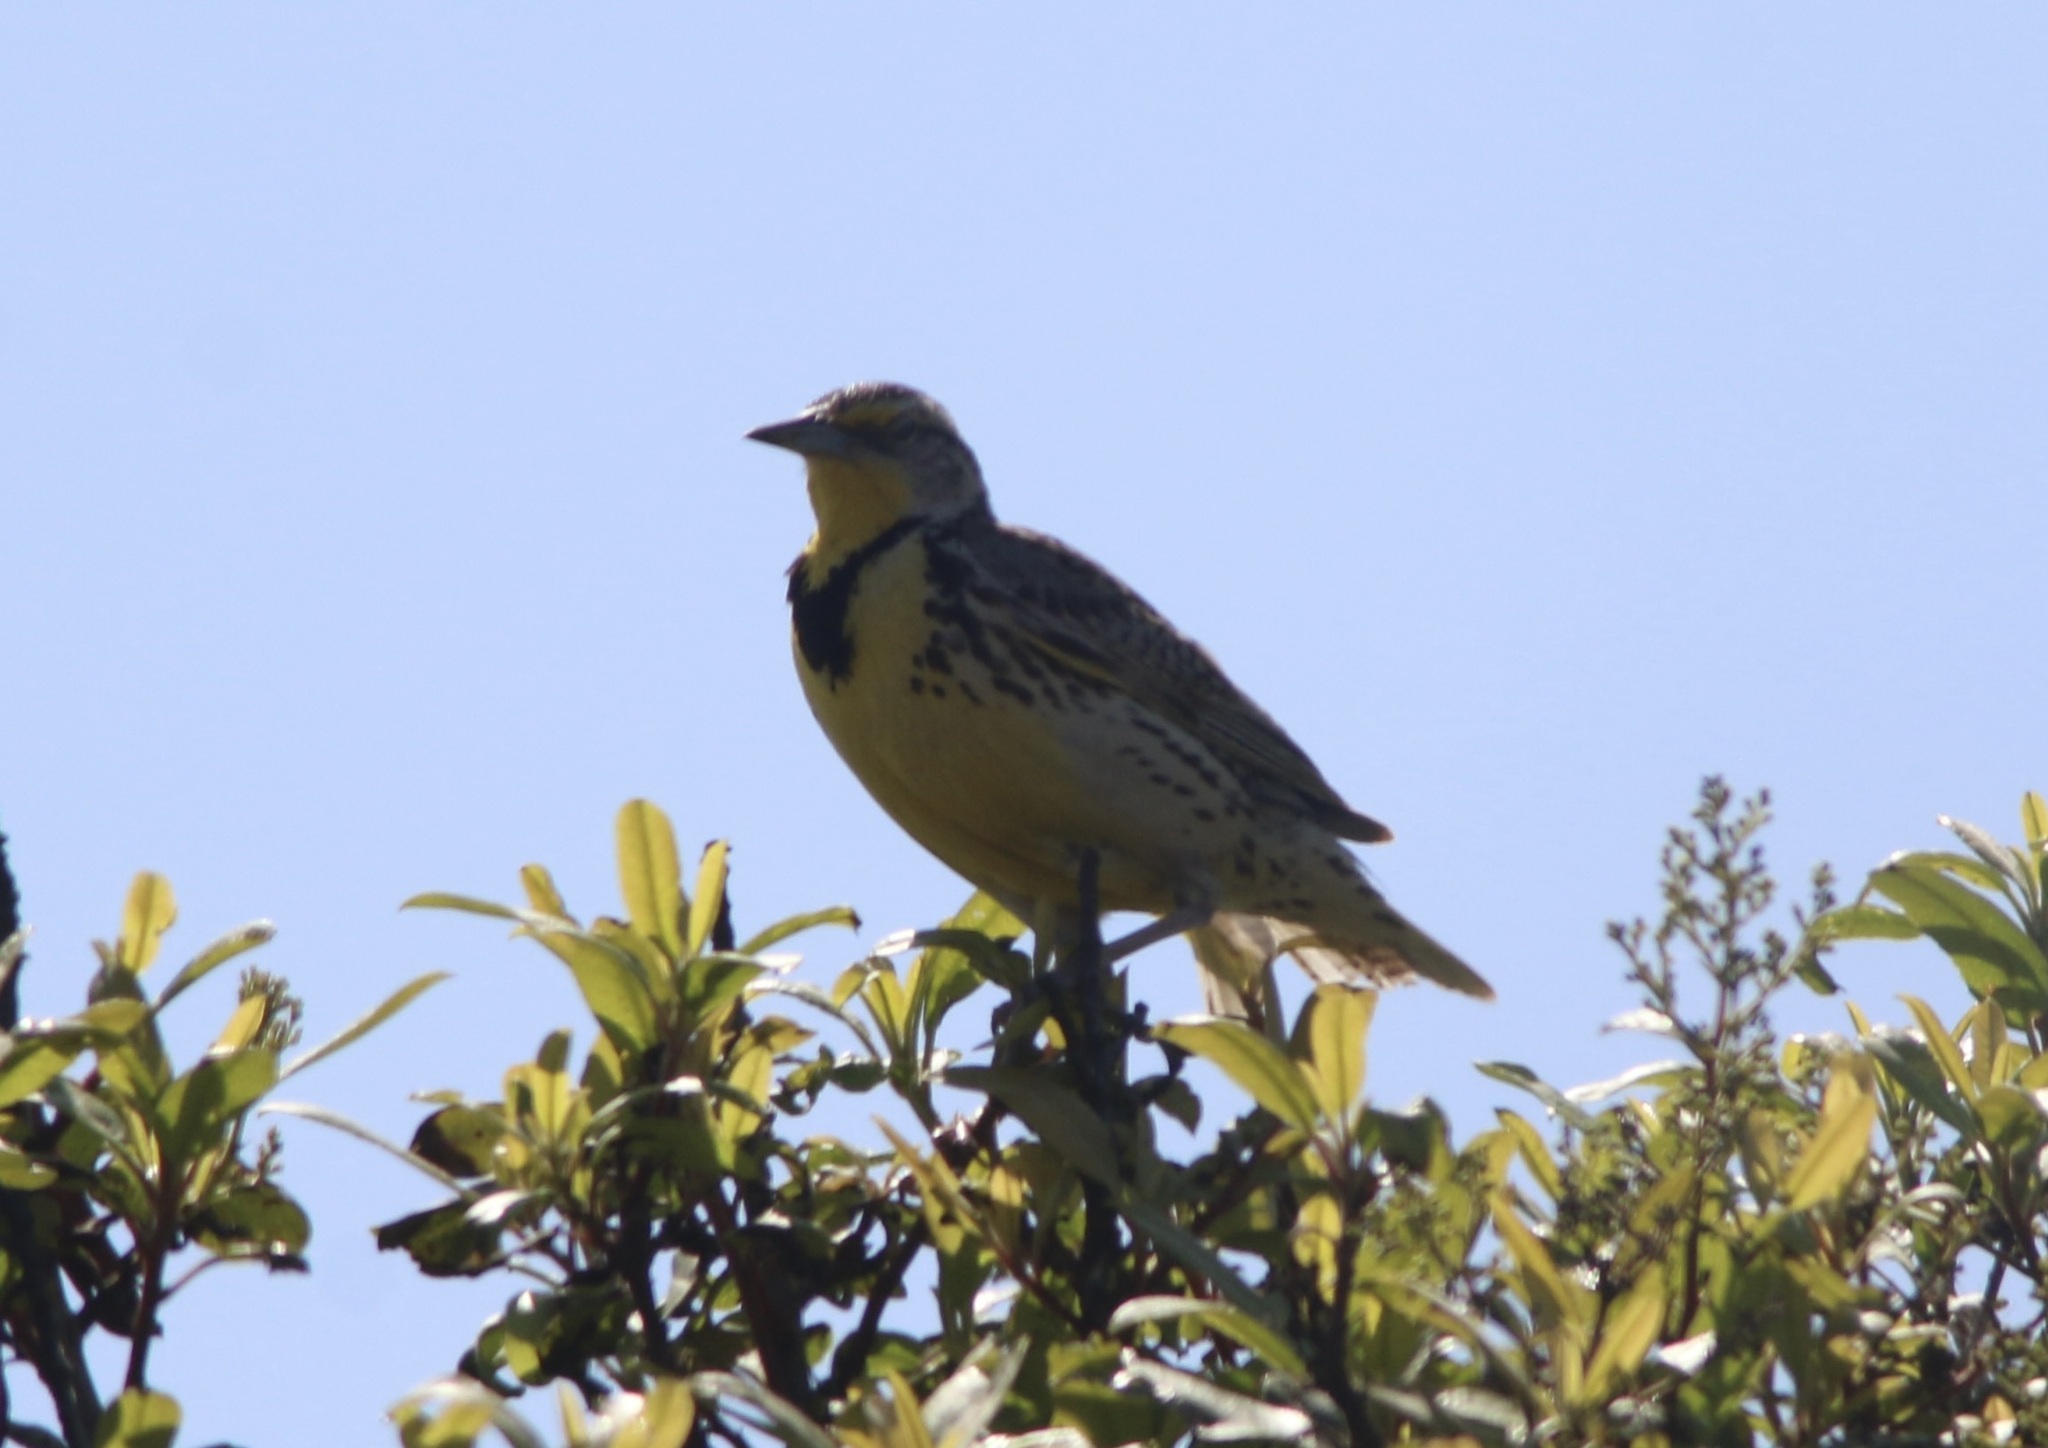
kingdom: Animalia
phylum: Chordata
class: Aves
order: Passeriformes
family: Icteridae
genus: Sturnella
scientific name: Sturnella neglecta
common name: Western meadowlark
